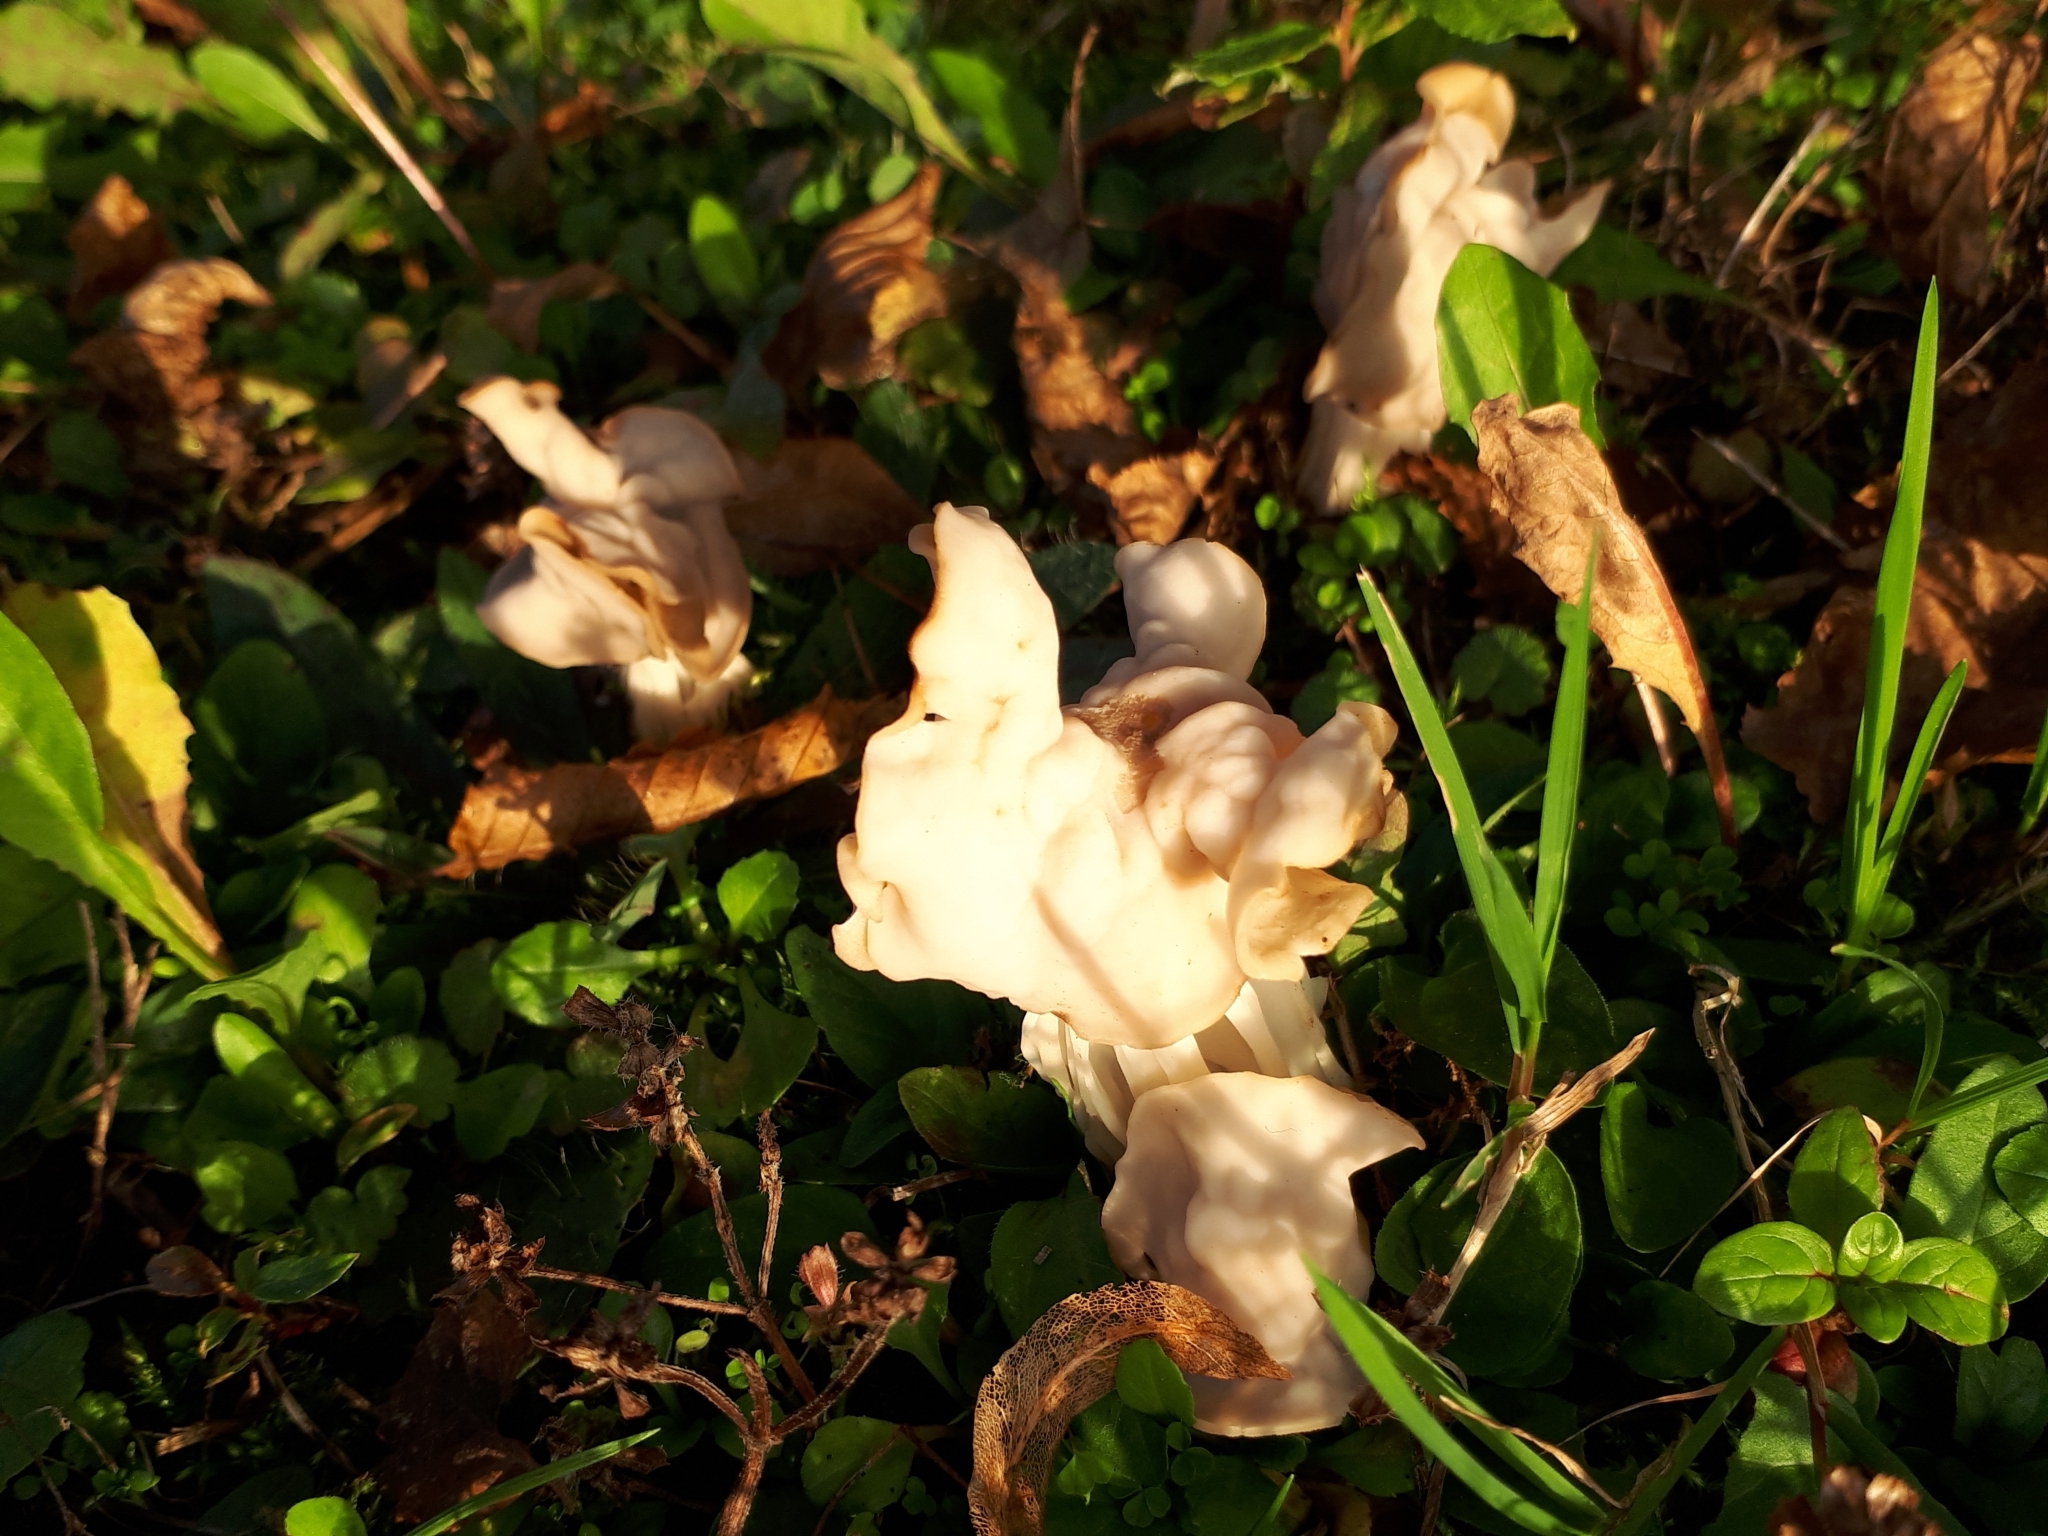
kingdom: Fungi
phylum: Ascomycota
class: Pezizomycetes
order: Pezizales
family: Helvellaceae
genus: Helvella
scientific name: Helvella crispa
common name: White saddle
